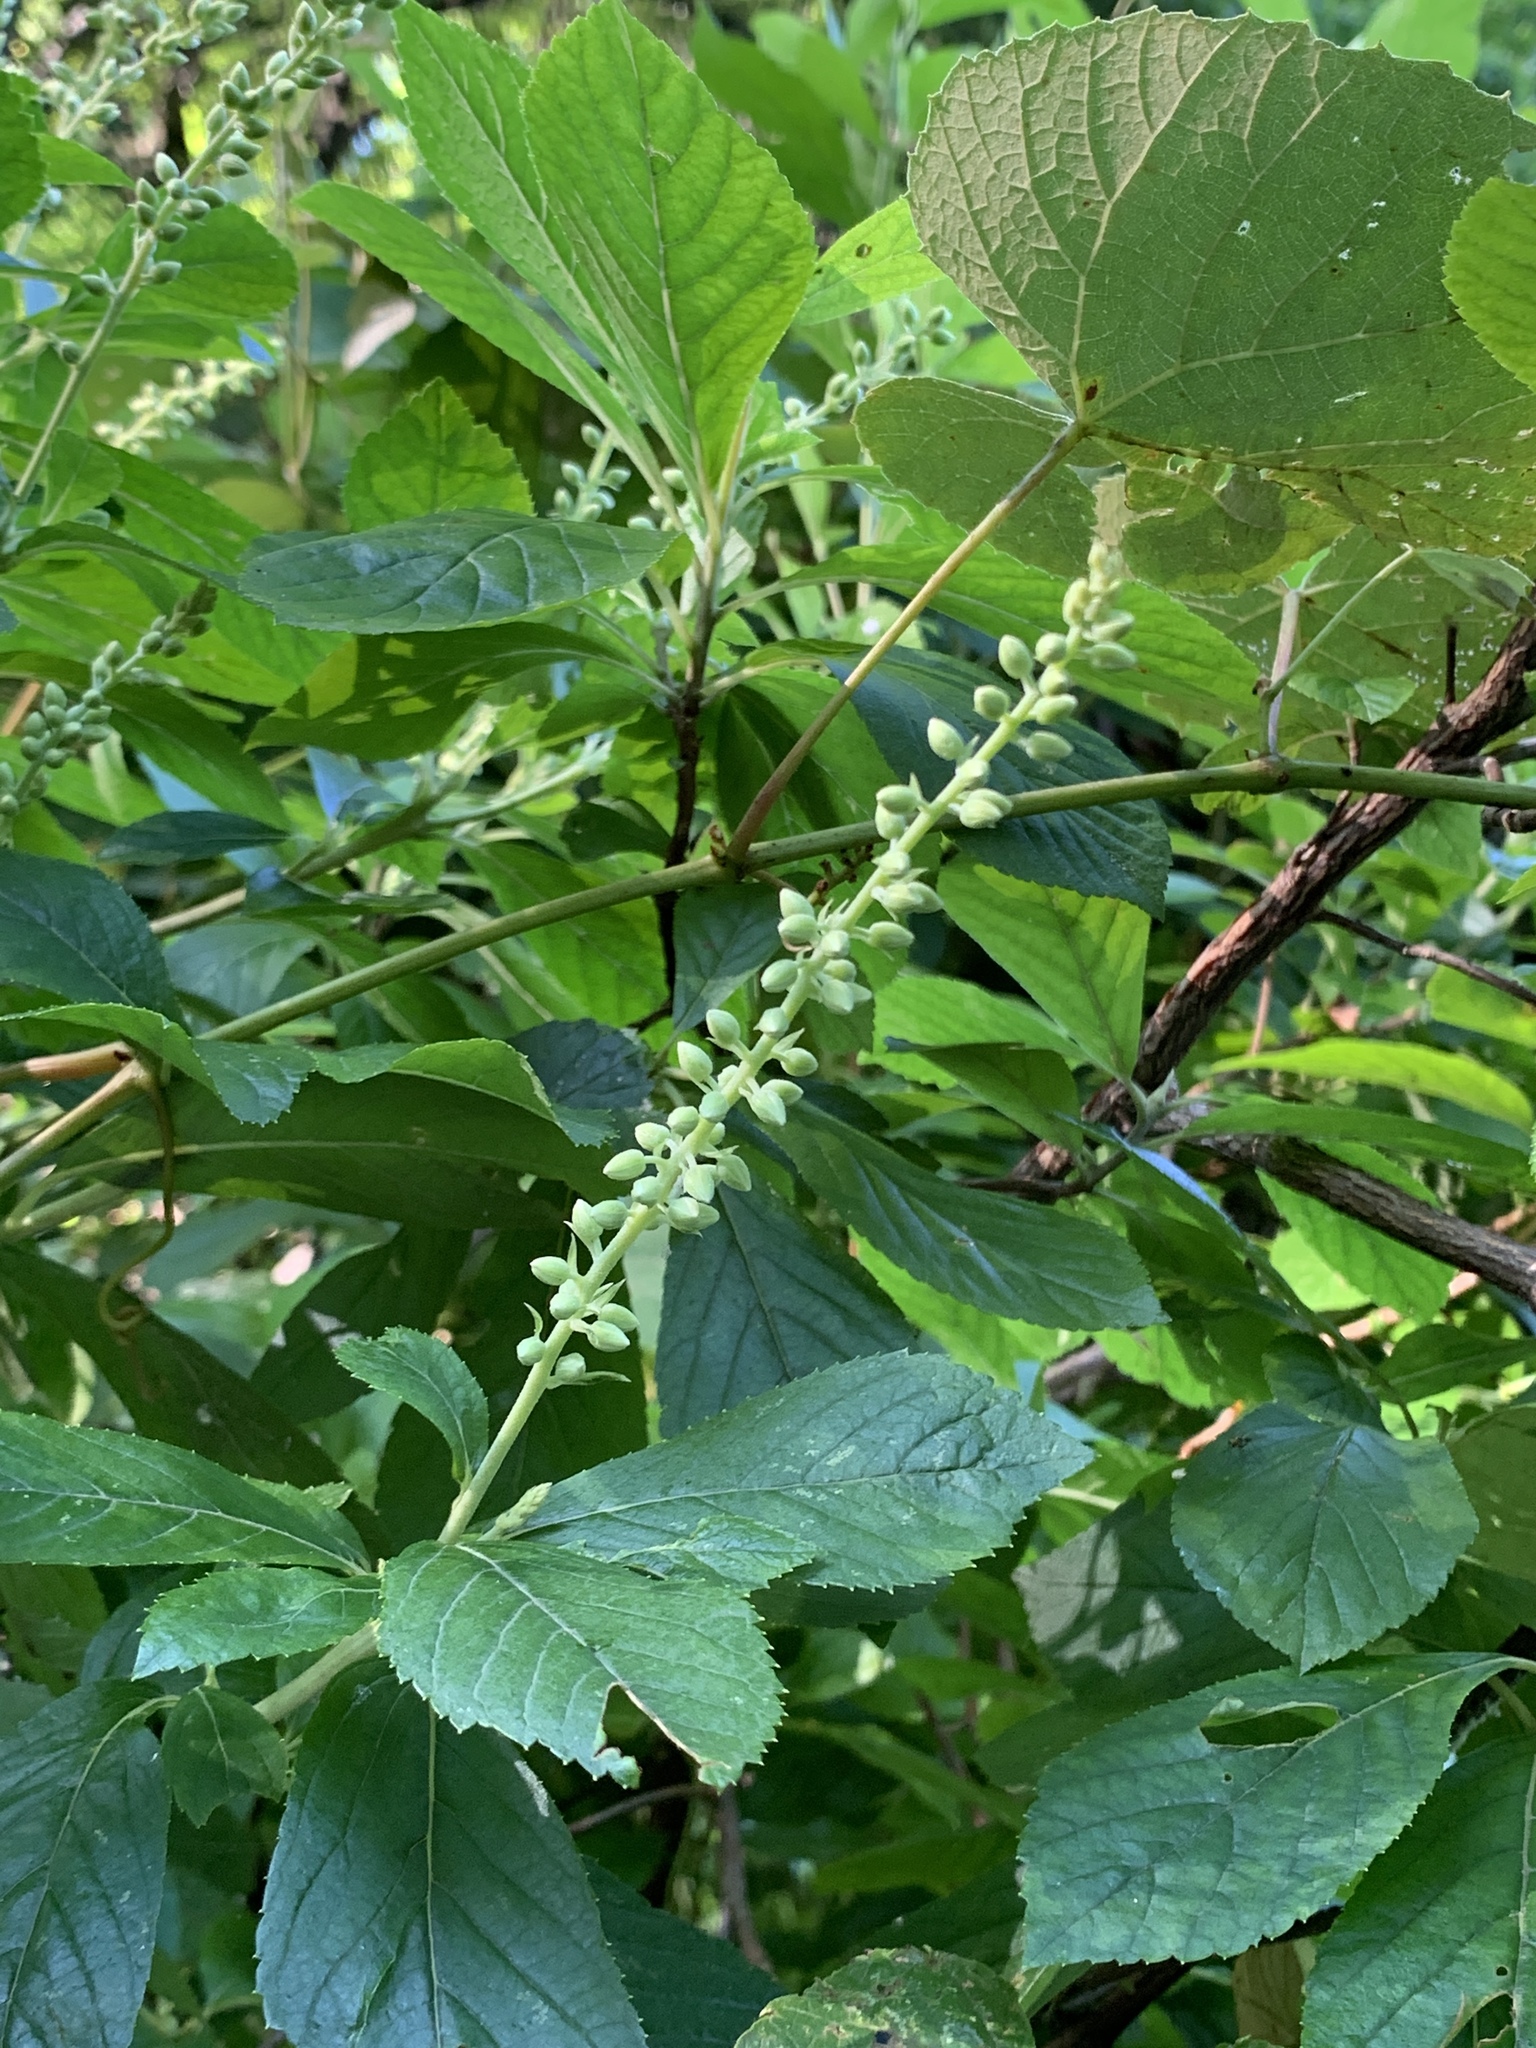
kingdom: Plantae
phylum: Tracheophyta
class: Magnoliopsida
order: Ericales
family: Clethraceae
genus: Clethra
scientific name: Clethra alnifolia
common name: Sweet pepperbush
